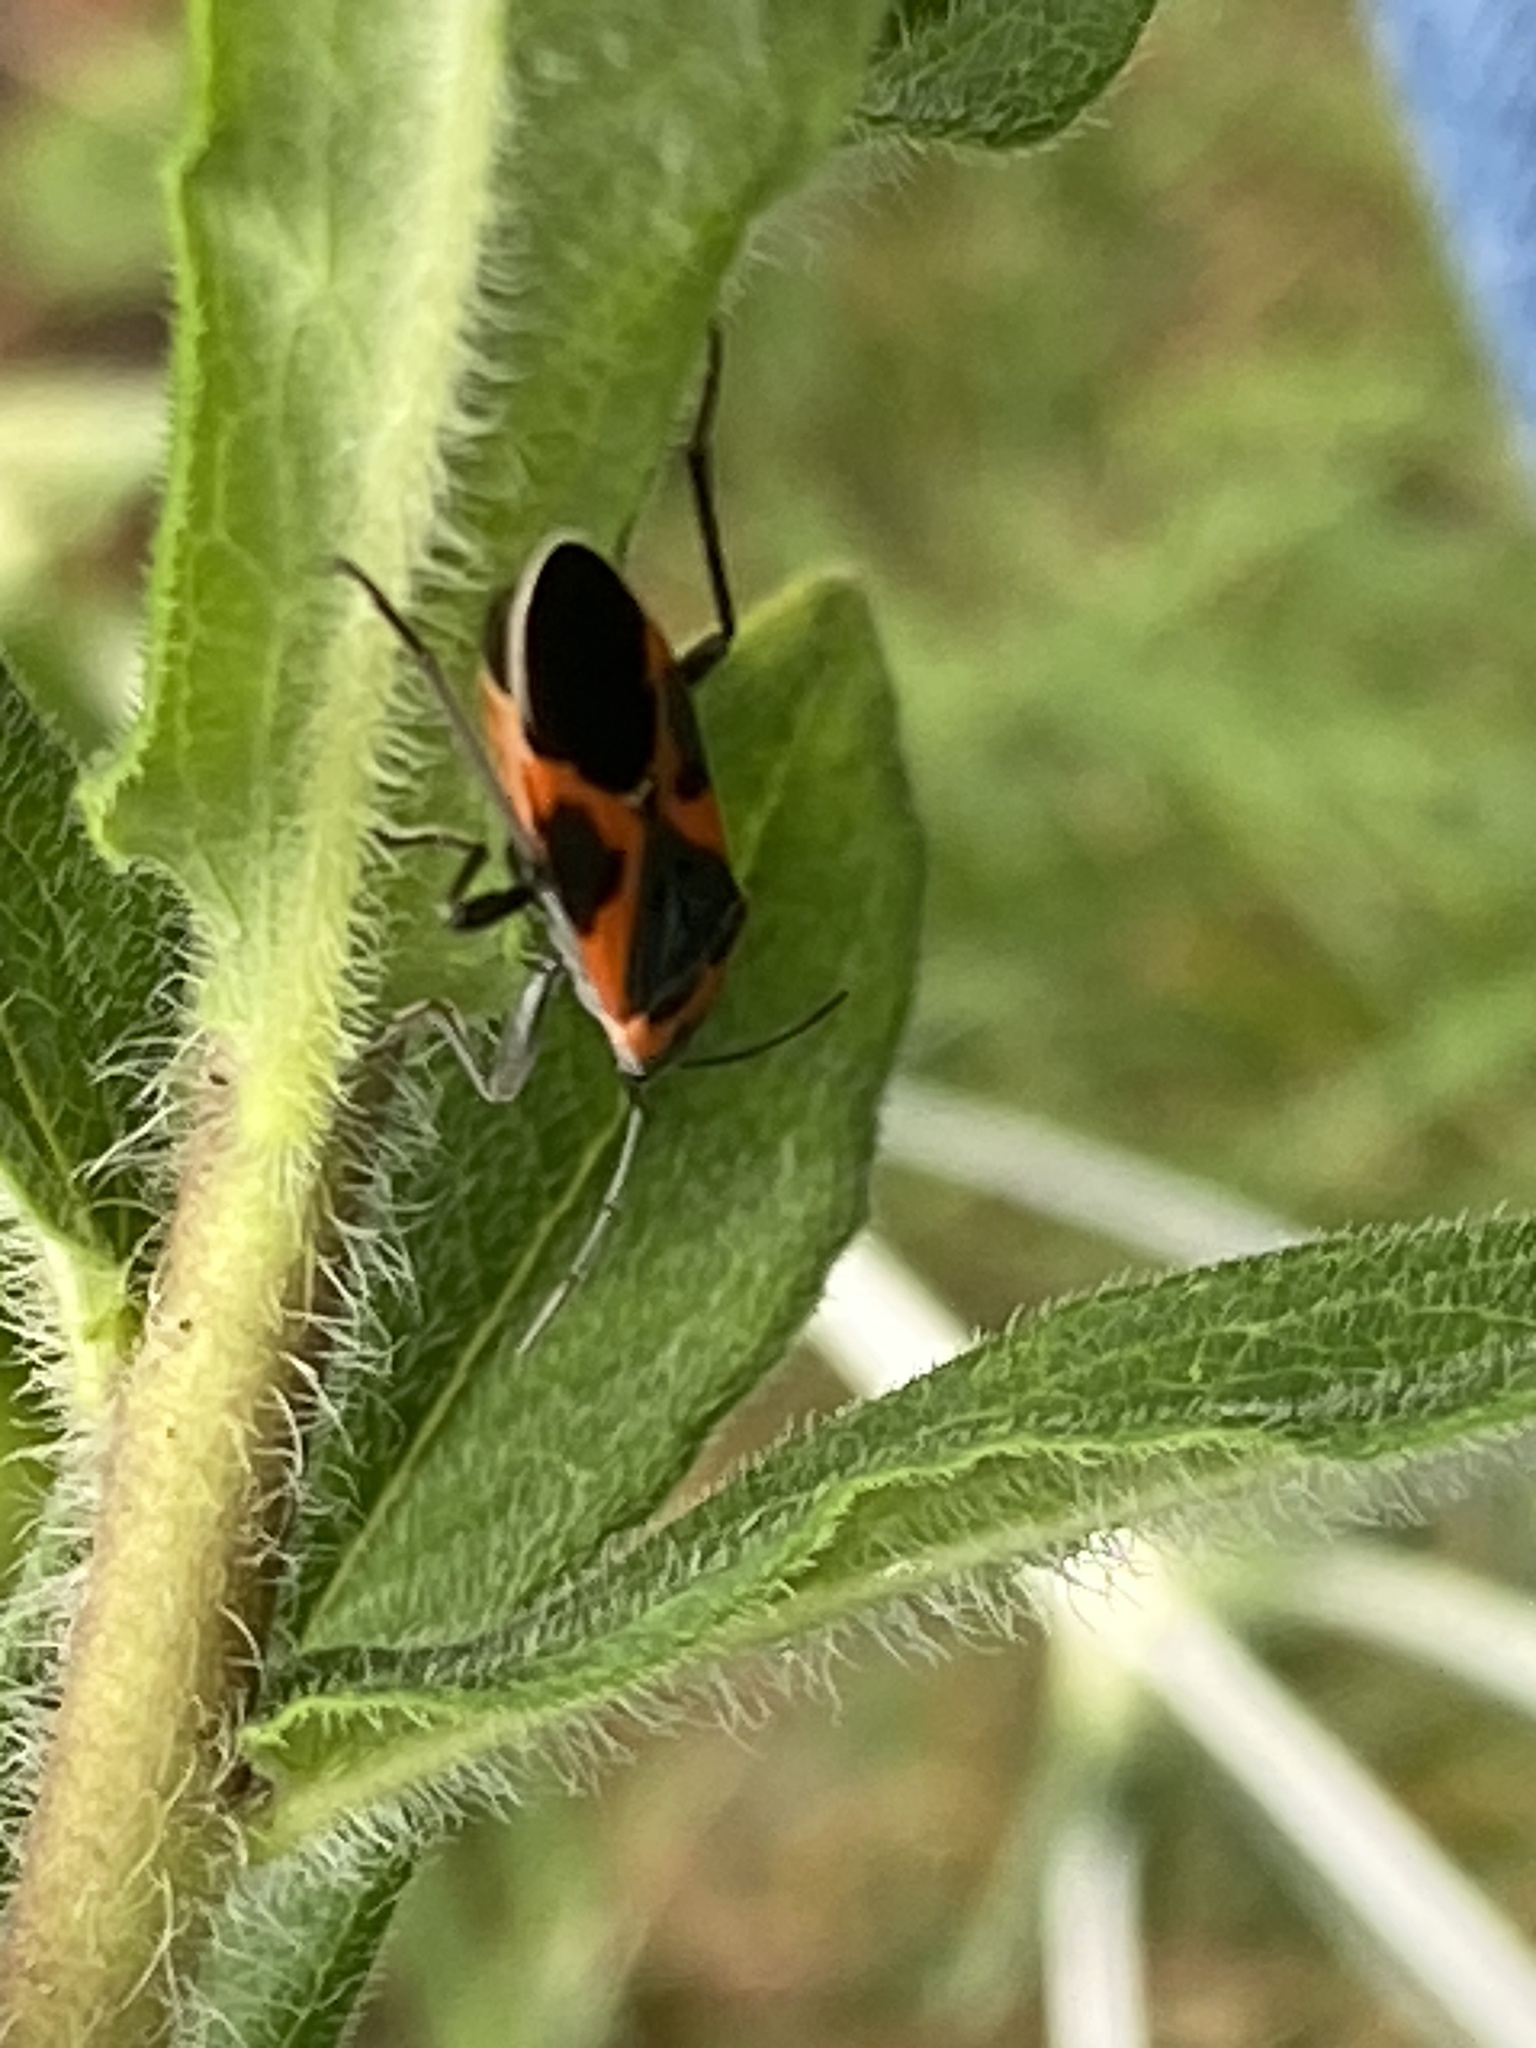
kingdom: Animalia
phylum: Arthropoda
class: Insecta
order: Hemiptera
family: Lygaeidae
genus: Lygaeus
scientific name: Lygaeus kalmii
